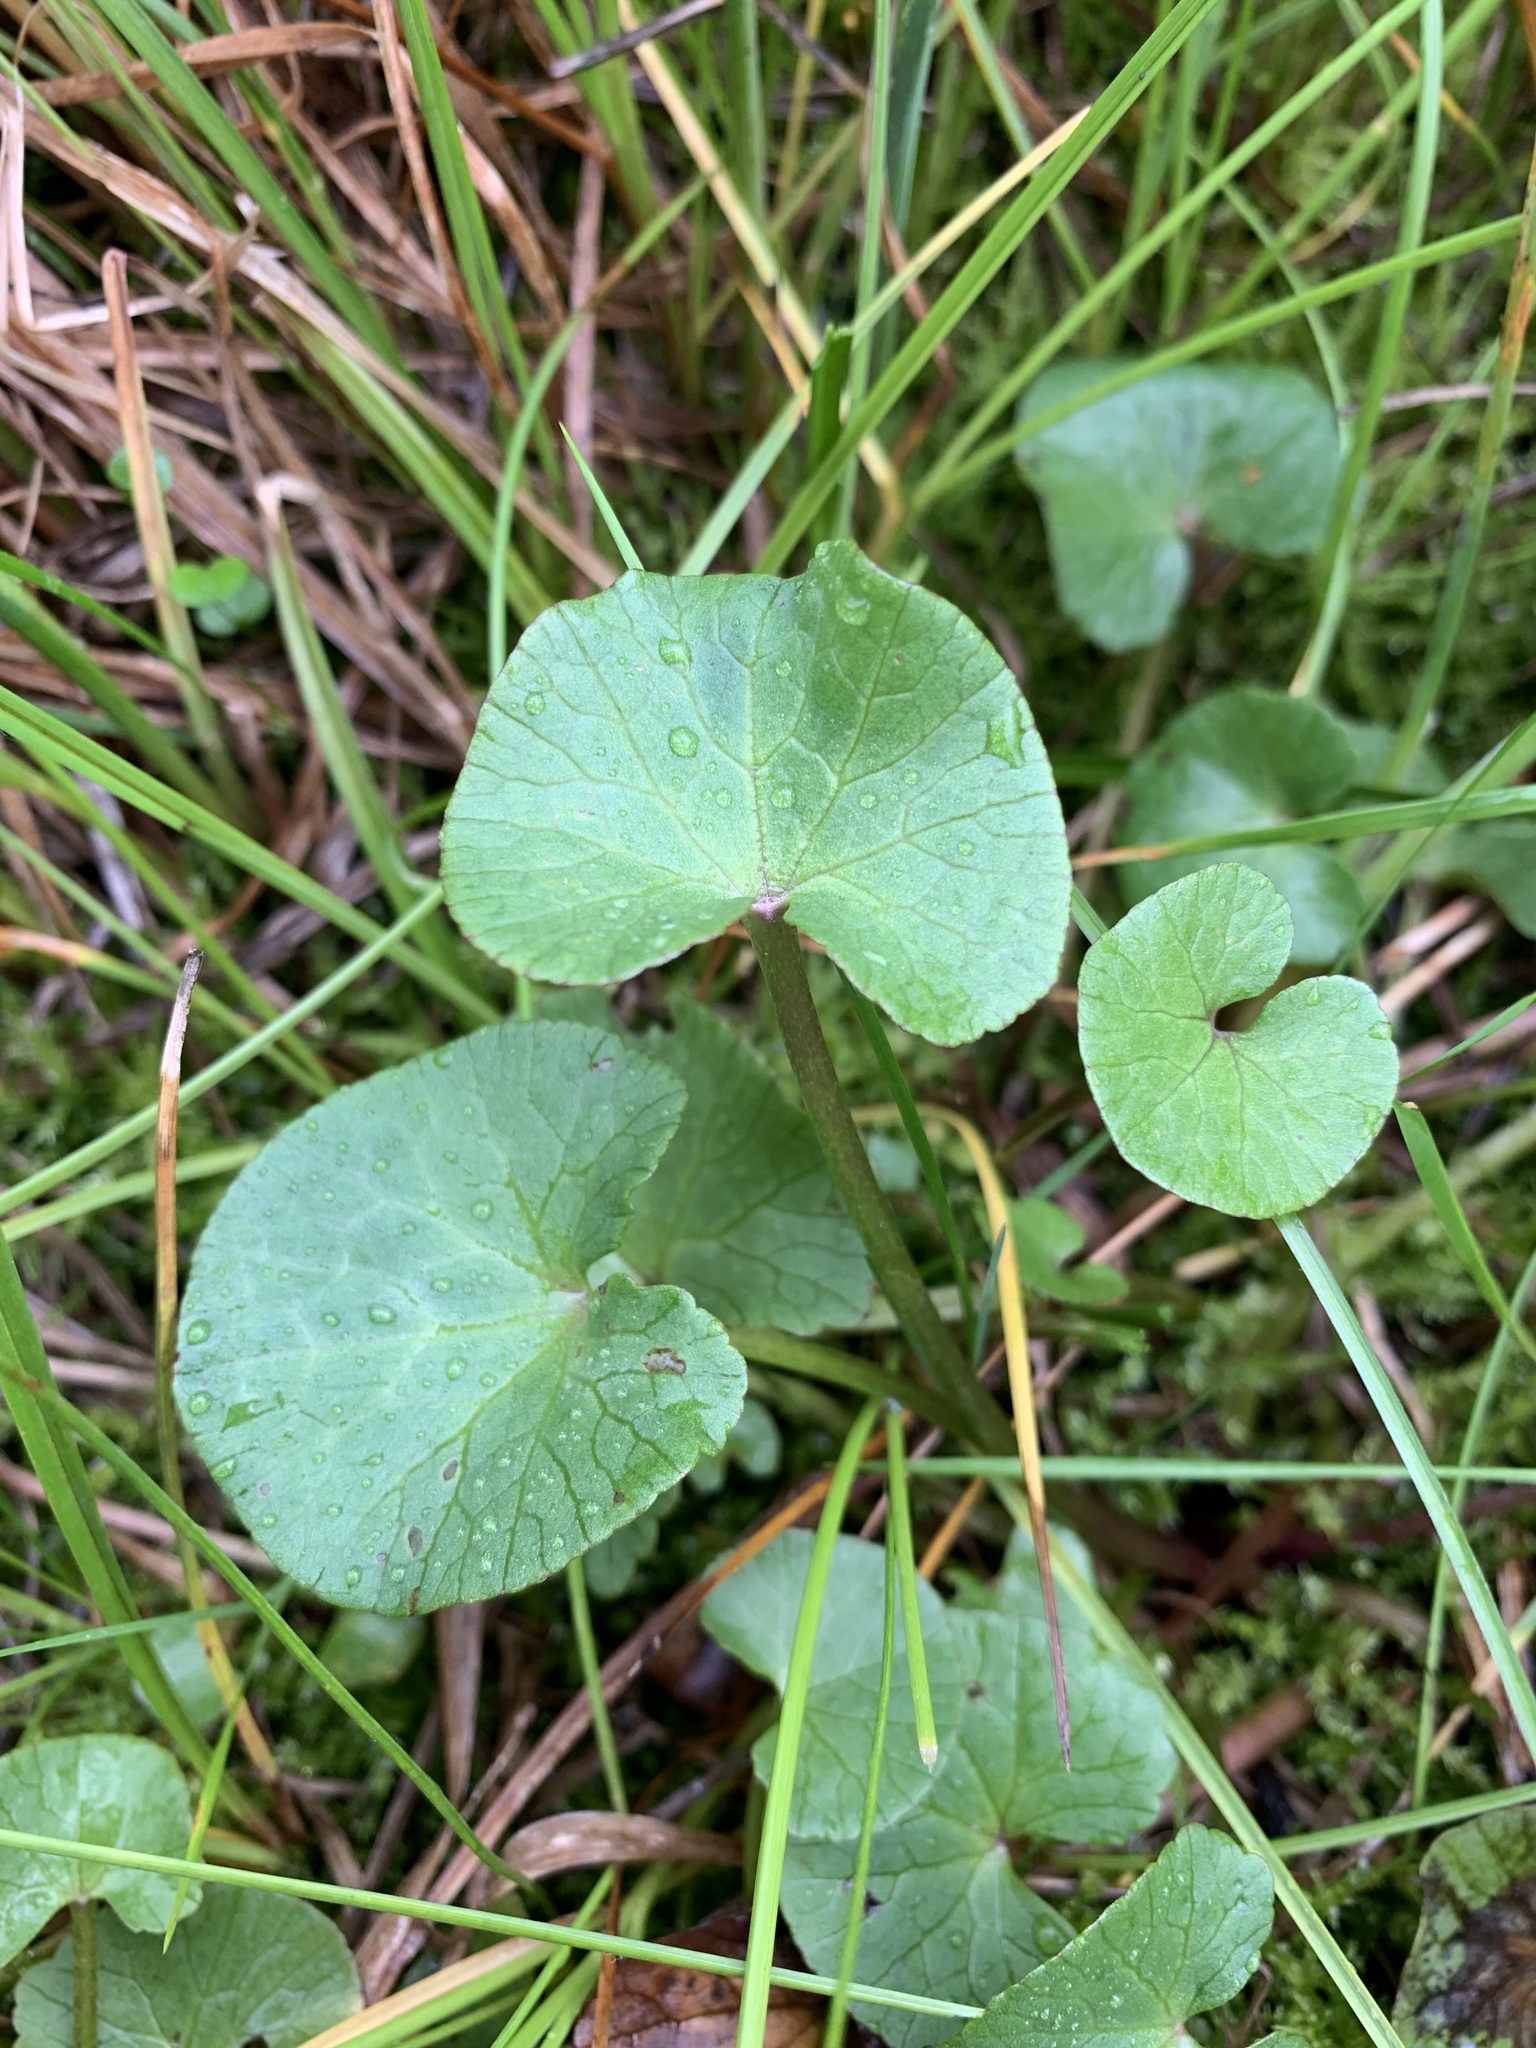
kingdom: Plantae
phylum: Tracheophyta
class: Magnoliopsida
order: Ranunculales
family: Ranunculaceae
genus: Caltha
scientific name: Caltha palustris
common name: Marsh marigold
